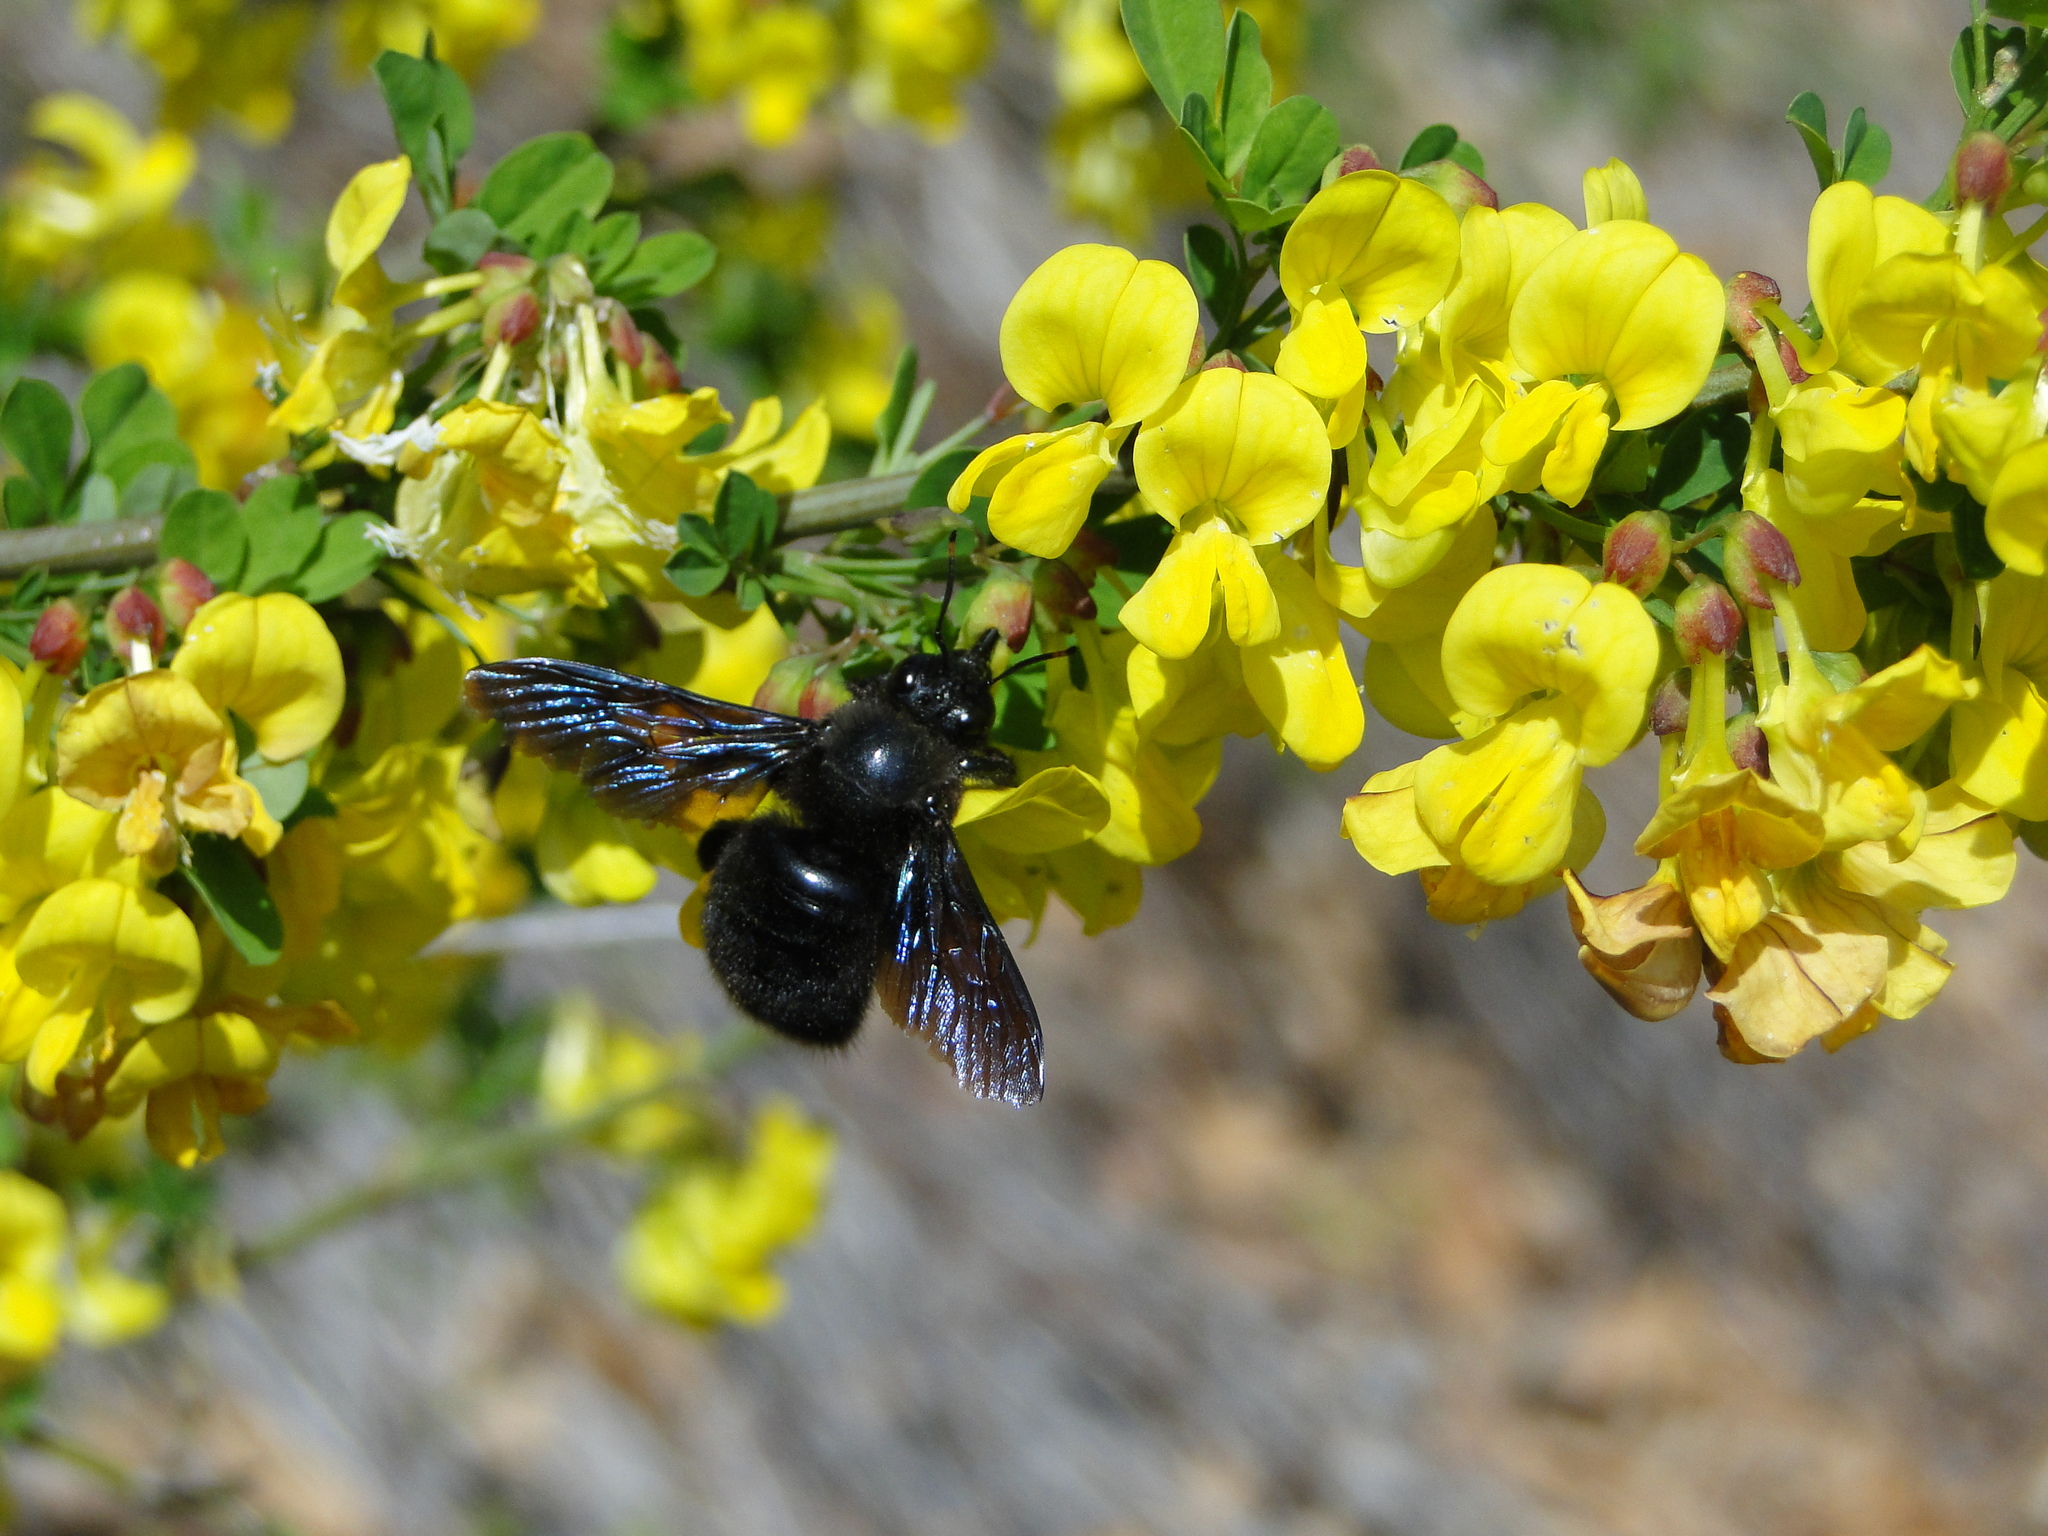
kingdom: Animalia
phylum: Arthropoda
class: Insecta
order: Hymenoptera
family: Apidae
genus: Xylocopa
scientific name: Xylocopa violacea
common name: Violet carpenter bee
